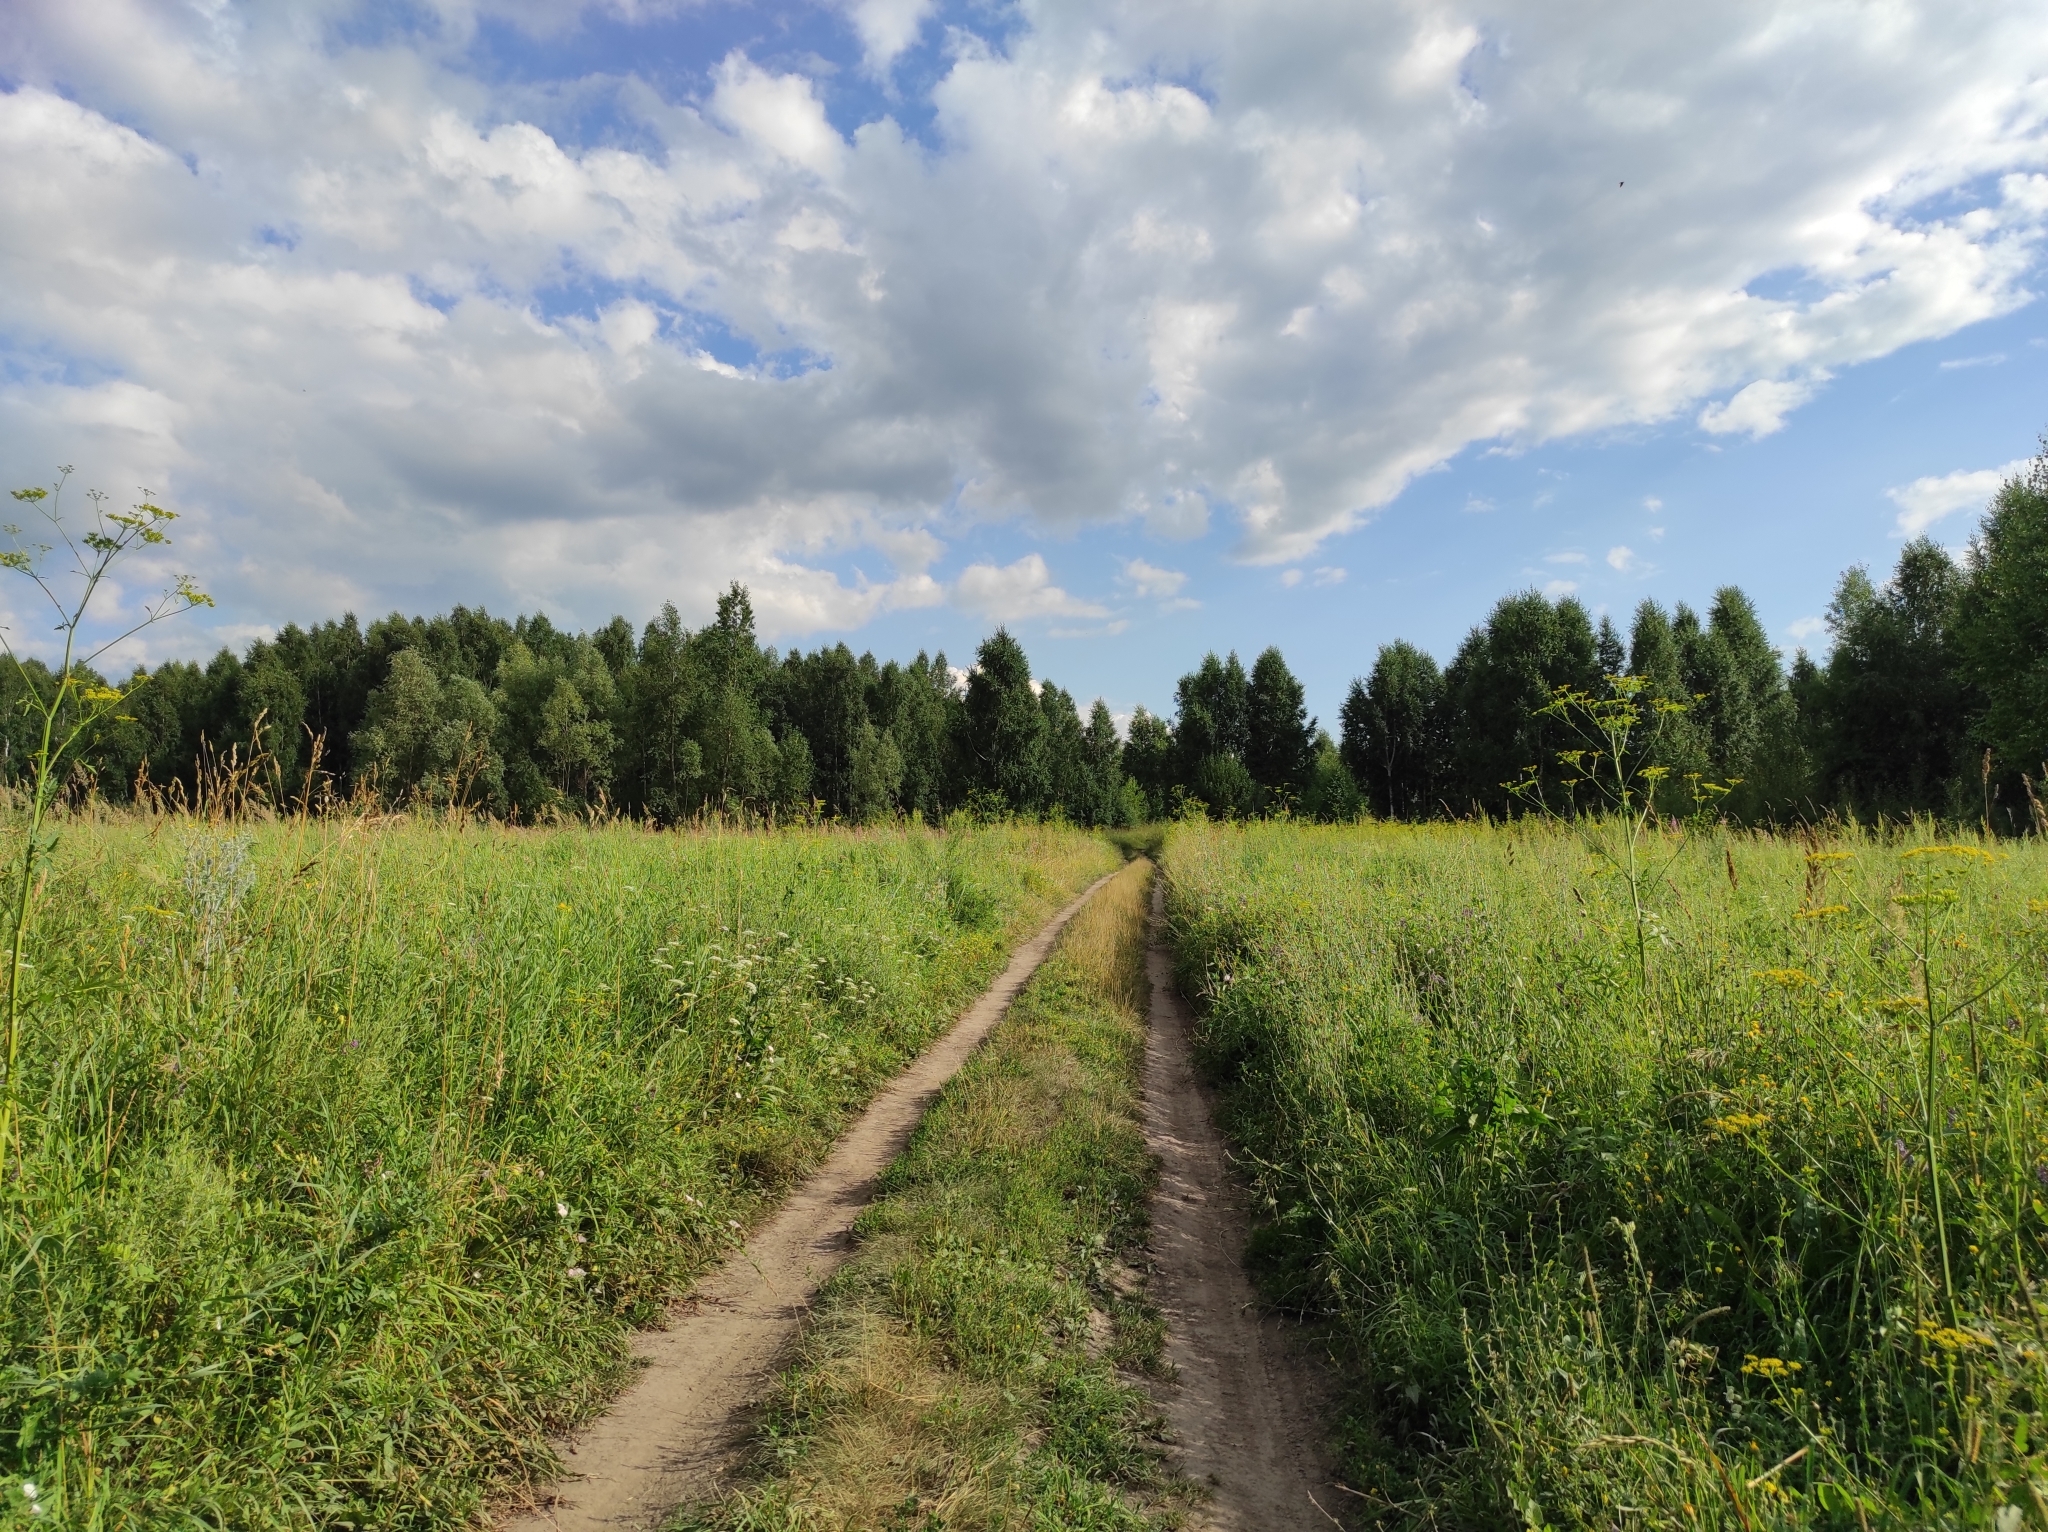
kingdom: Plantae
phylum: Tracheophyta
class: Magnoliopsida
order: Fagales
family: Betulaceae
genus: Betula
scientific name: Betula pendula
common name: Silver birch
